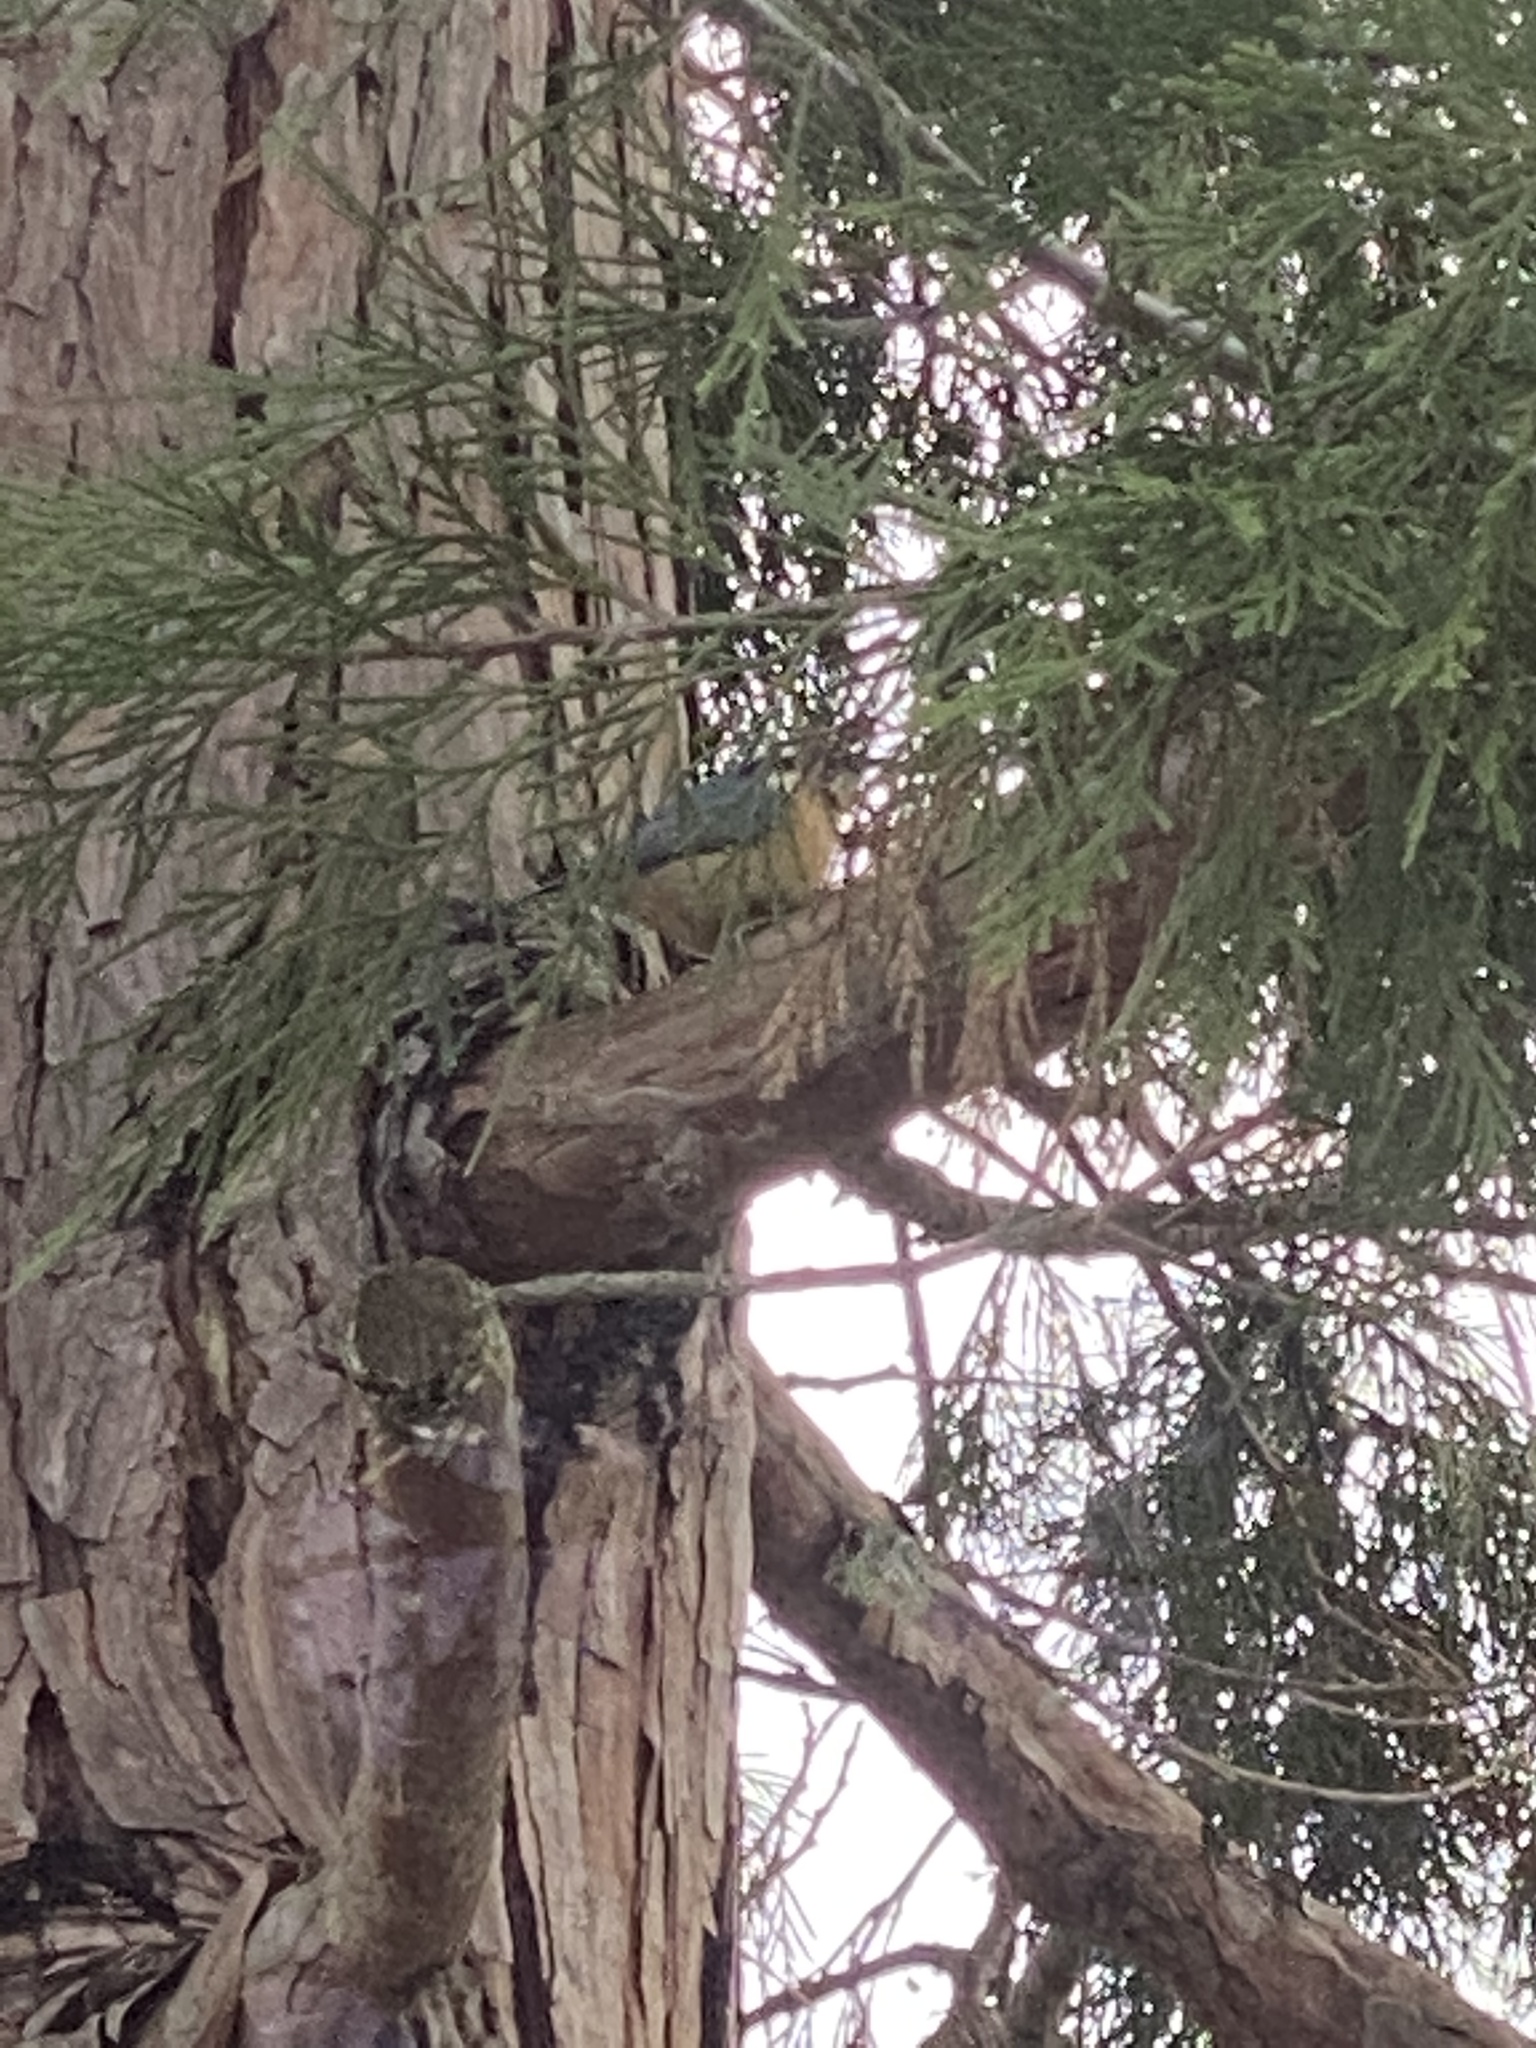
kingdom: Animalia
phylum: Chordata
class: Aves
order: Passeriformes
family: Sittidae
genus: Sitta
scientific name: Sitta canadensis
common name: Red-breasted nuthatch
